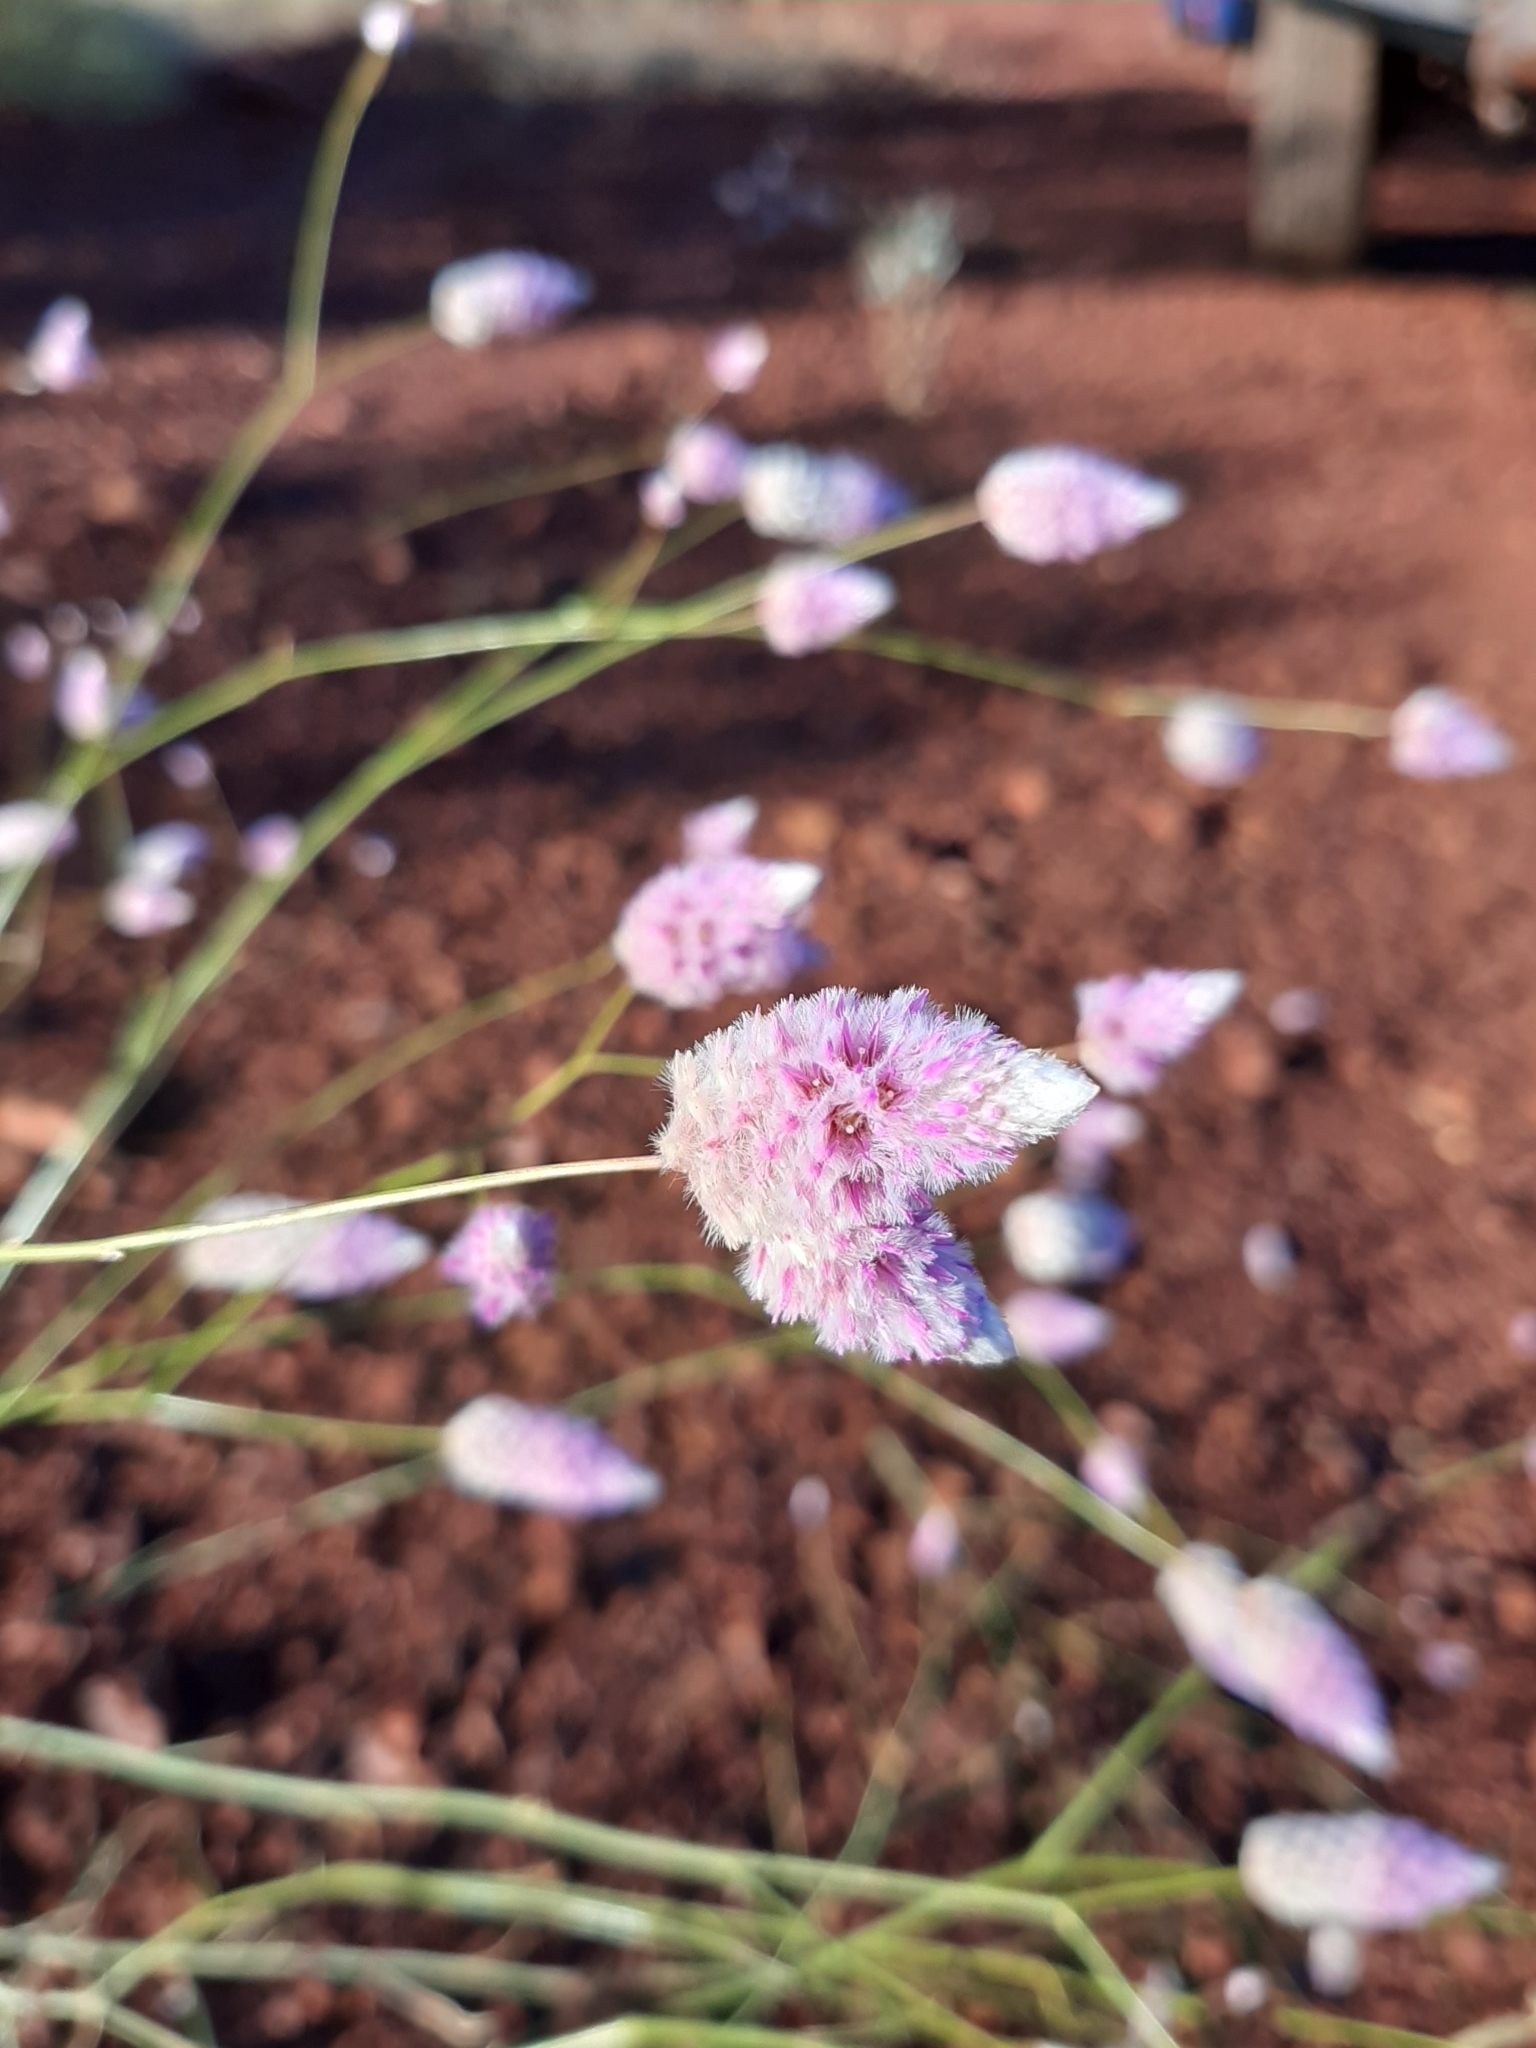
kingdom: Plantae
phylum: Tracheophyta
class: Magnoliopsida
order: Caryophyllales
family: Amaranthaceae
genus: Ptilotus
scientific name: Ptilotus calostachyus
